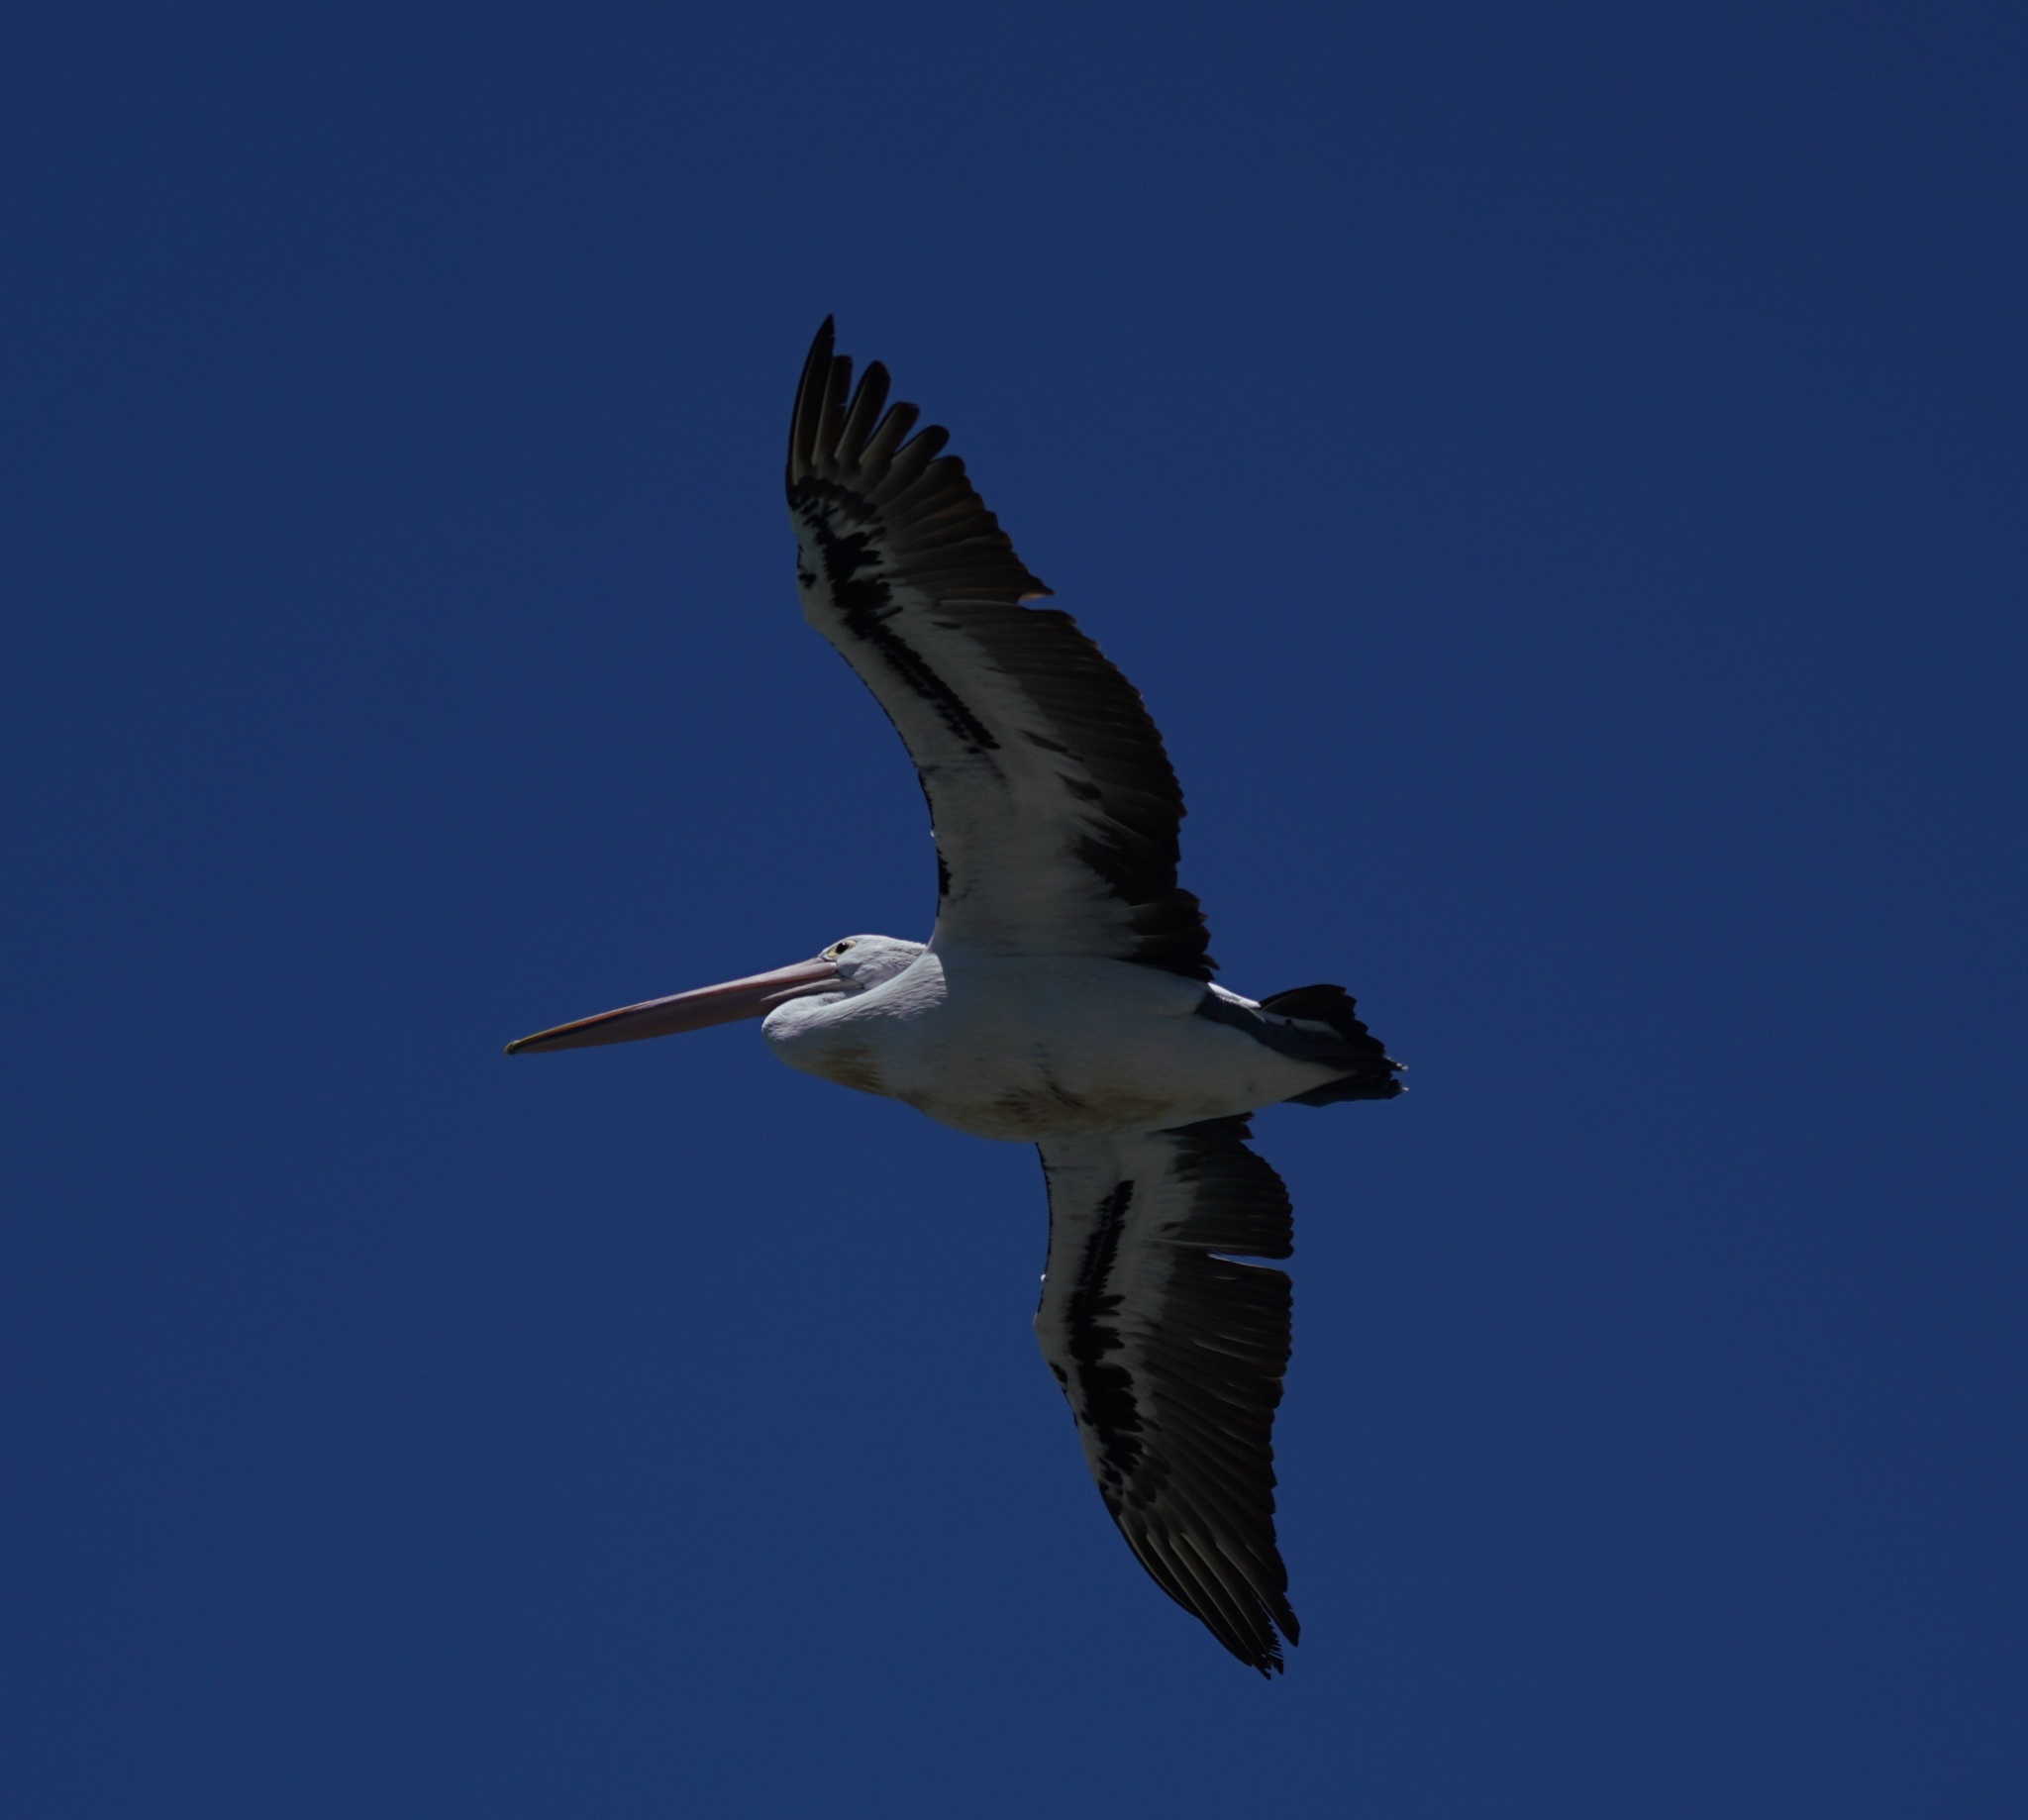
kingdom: Animalia
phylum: Chordata
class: Aves
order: Pelecaniformes
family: Pelecanidae
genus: Pelecanus
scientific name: Pelecanus conspicillatus
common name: Australian pelican
